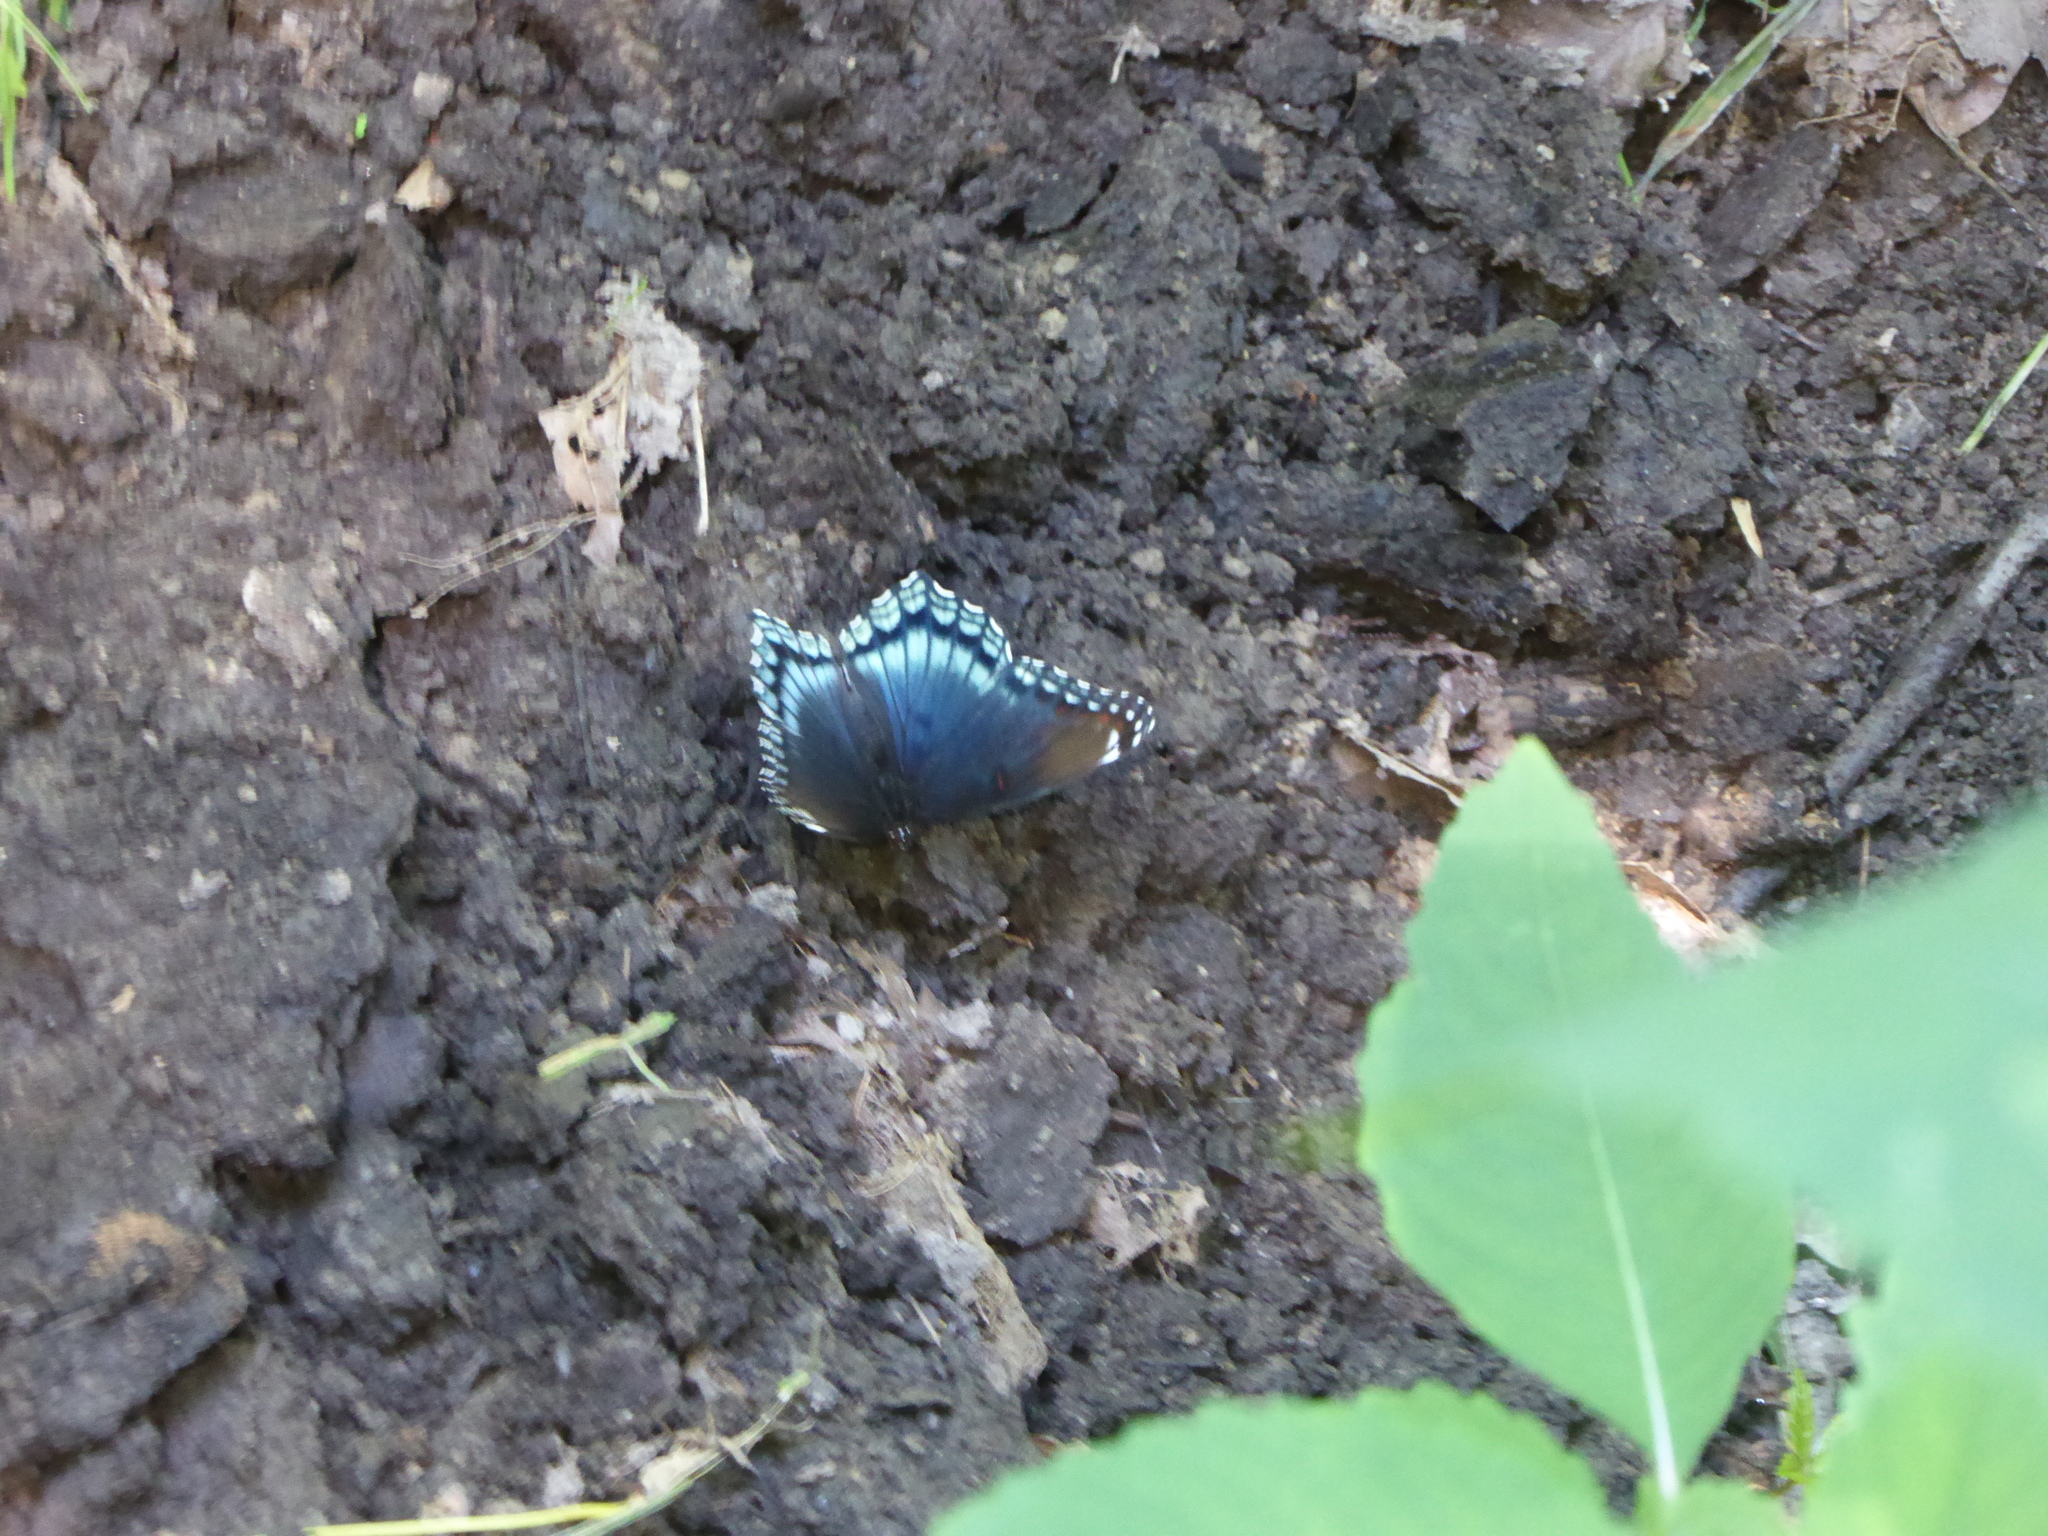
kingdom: Animalia
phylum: Arthropoda
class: Insecta
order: Lepidoptera
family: Nymphalidae
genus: Limenitis
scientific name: Limenitis astyanax
